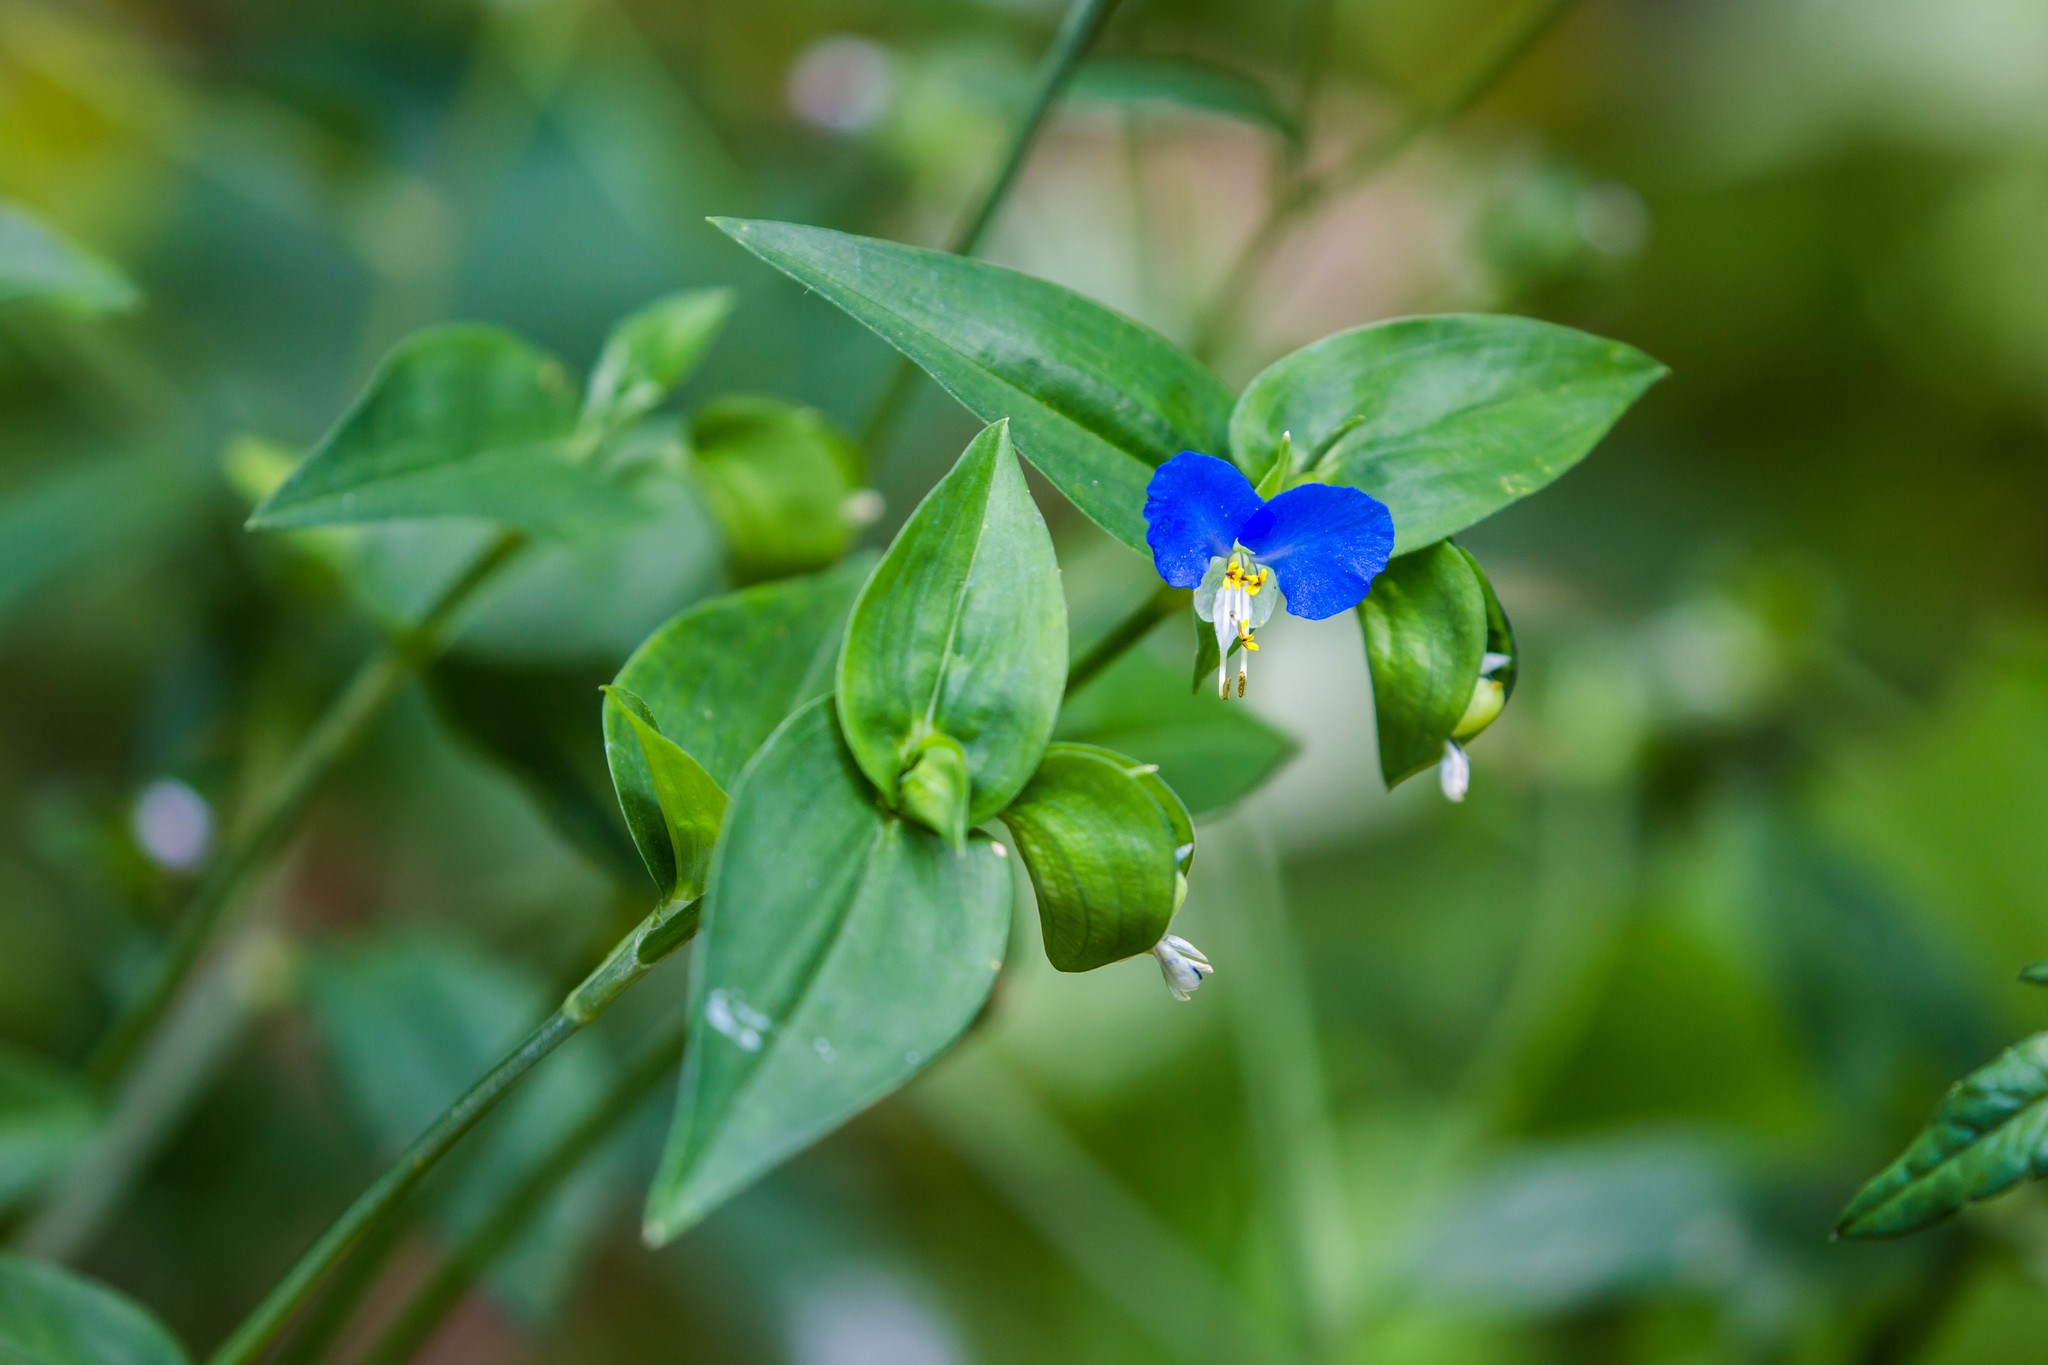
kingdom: Plantae
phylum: Tracheophyta
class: Liliopsida
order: Commelinales
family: Commelinaceae
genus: Commelina
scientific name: Commelina communis
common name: Asiatic dayflower
